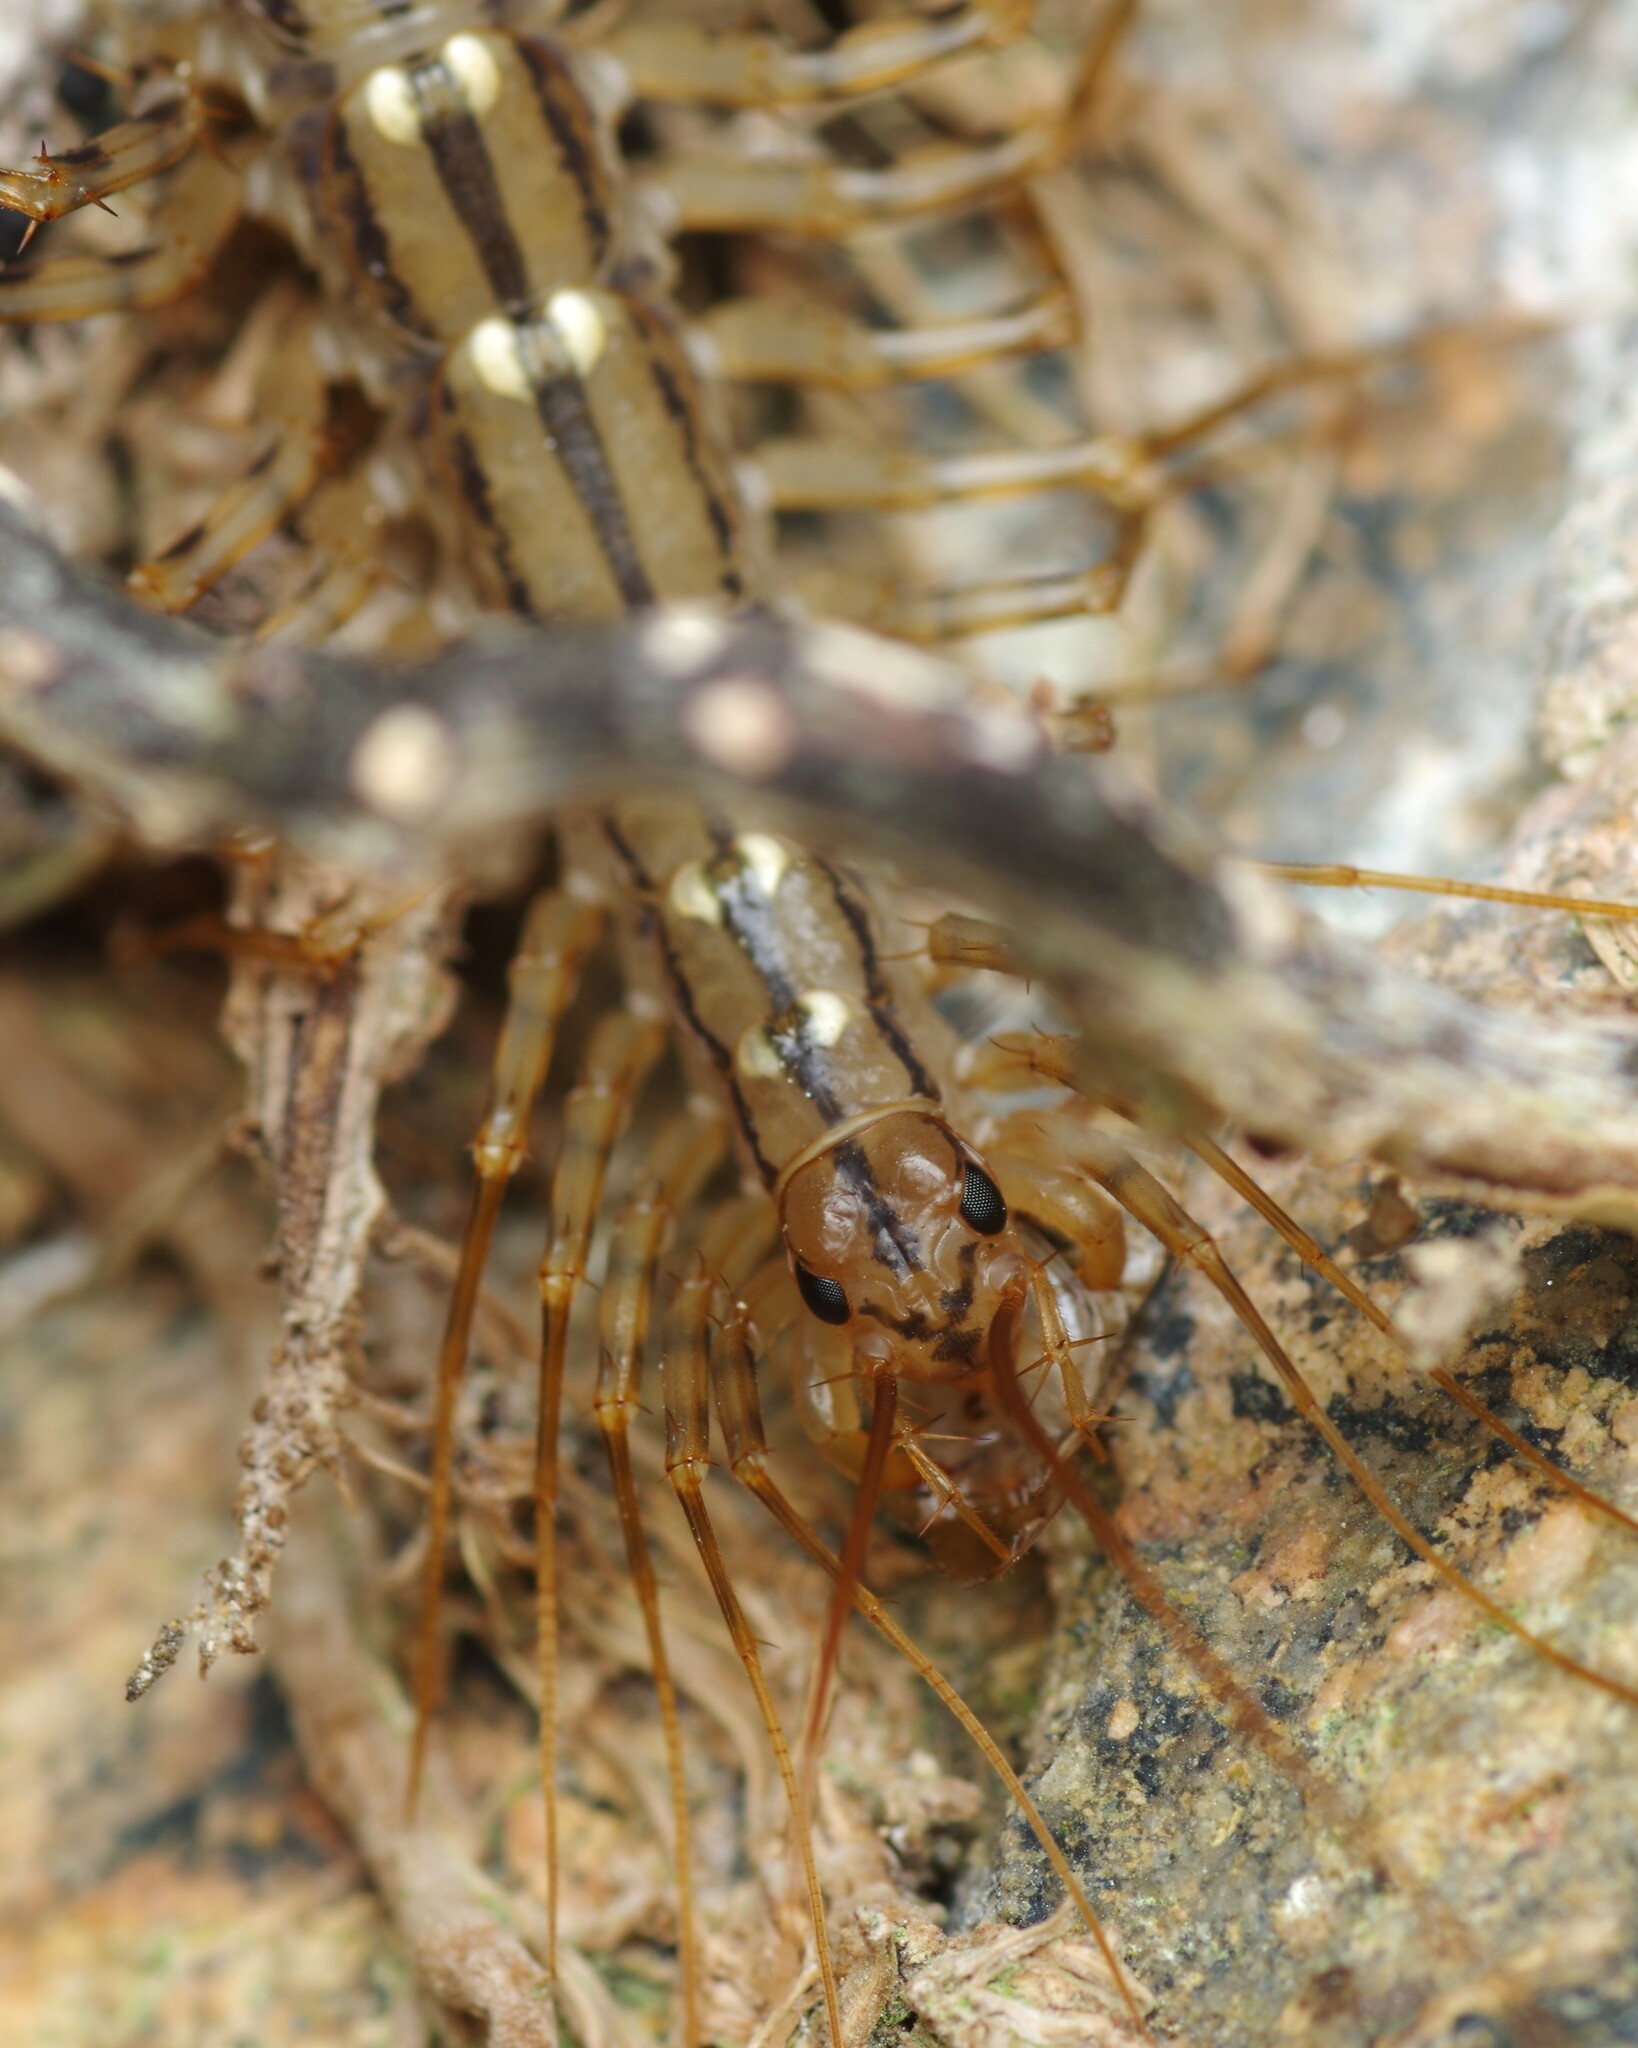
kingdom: Animalia
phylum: Arthropoda
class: Chilopoda
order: Scutigeromorpha
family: Scutigeridae
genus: Scutigera
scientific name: Scutigera coleoptrata
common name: House centipede
